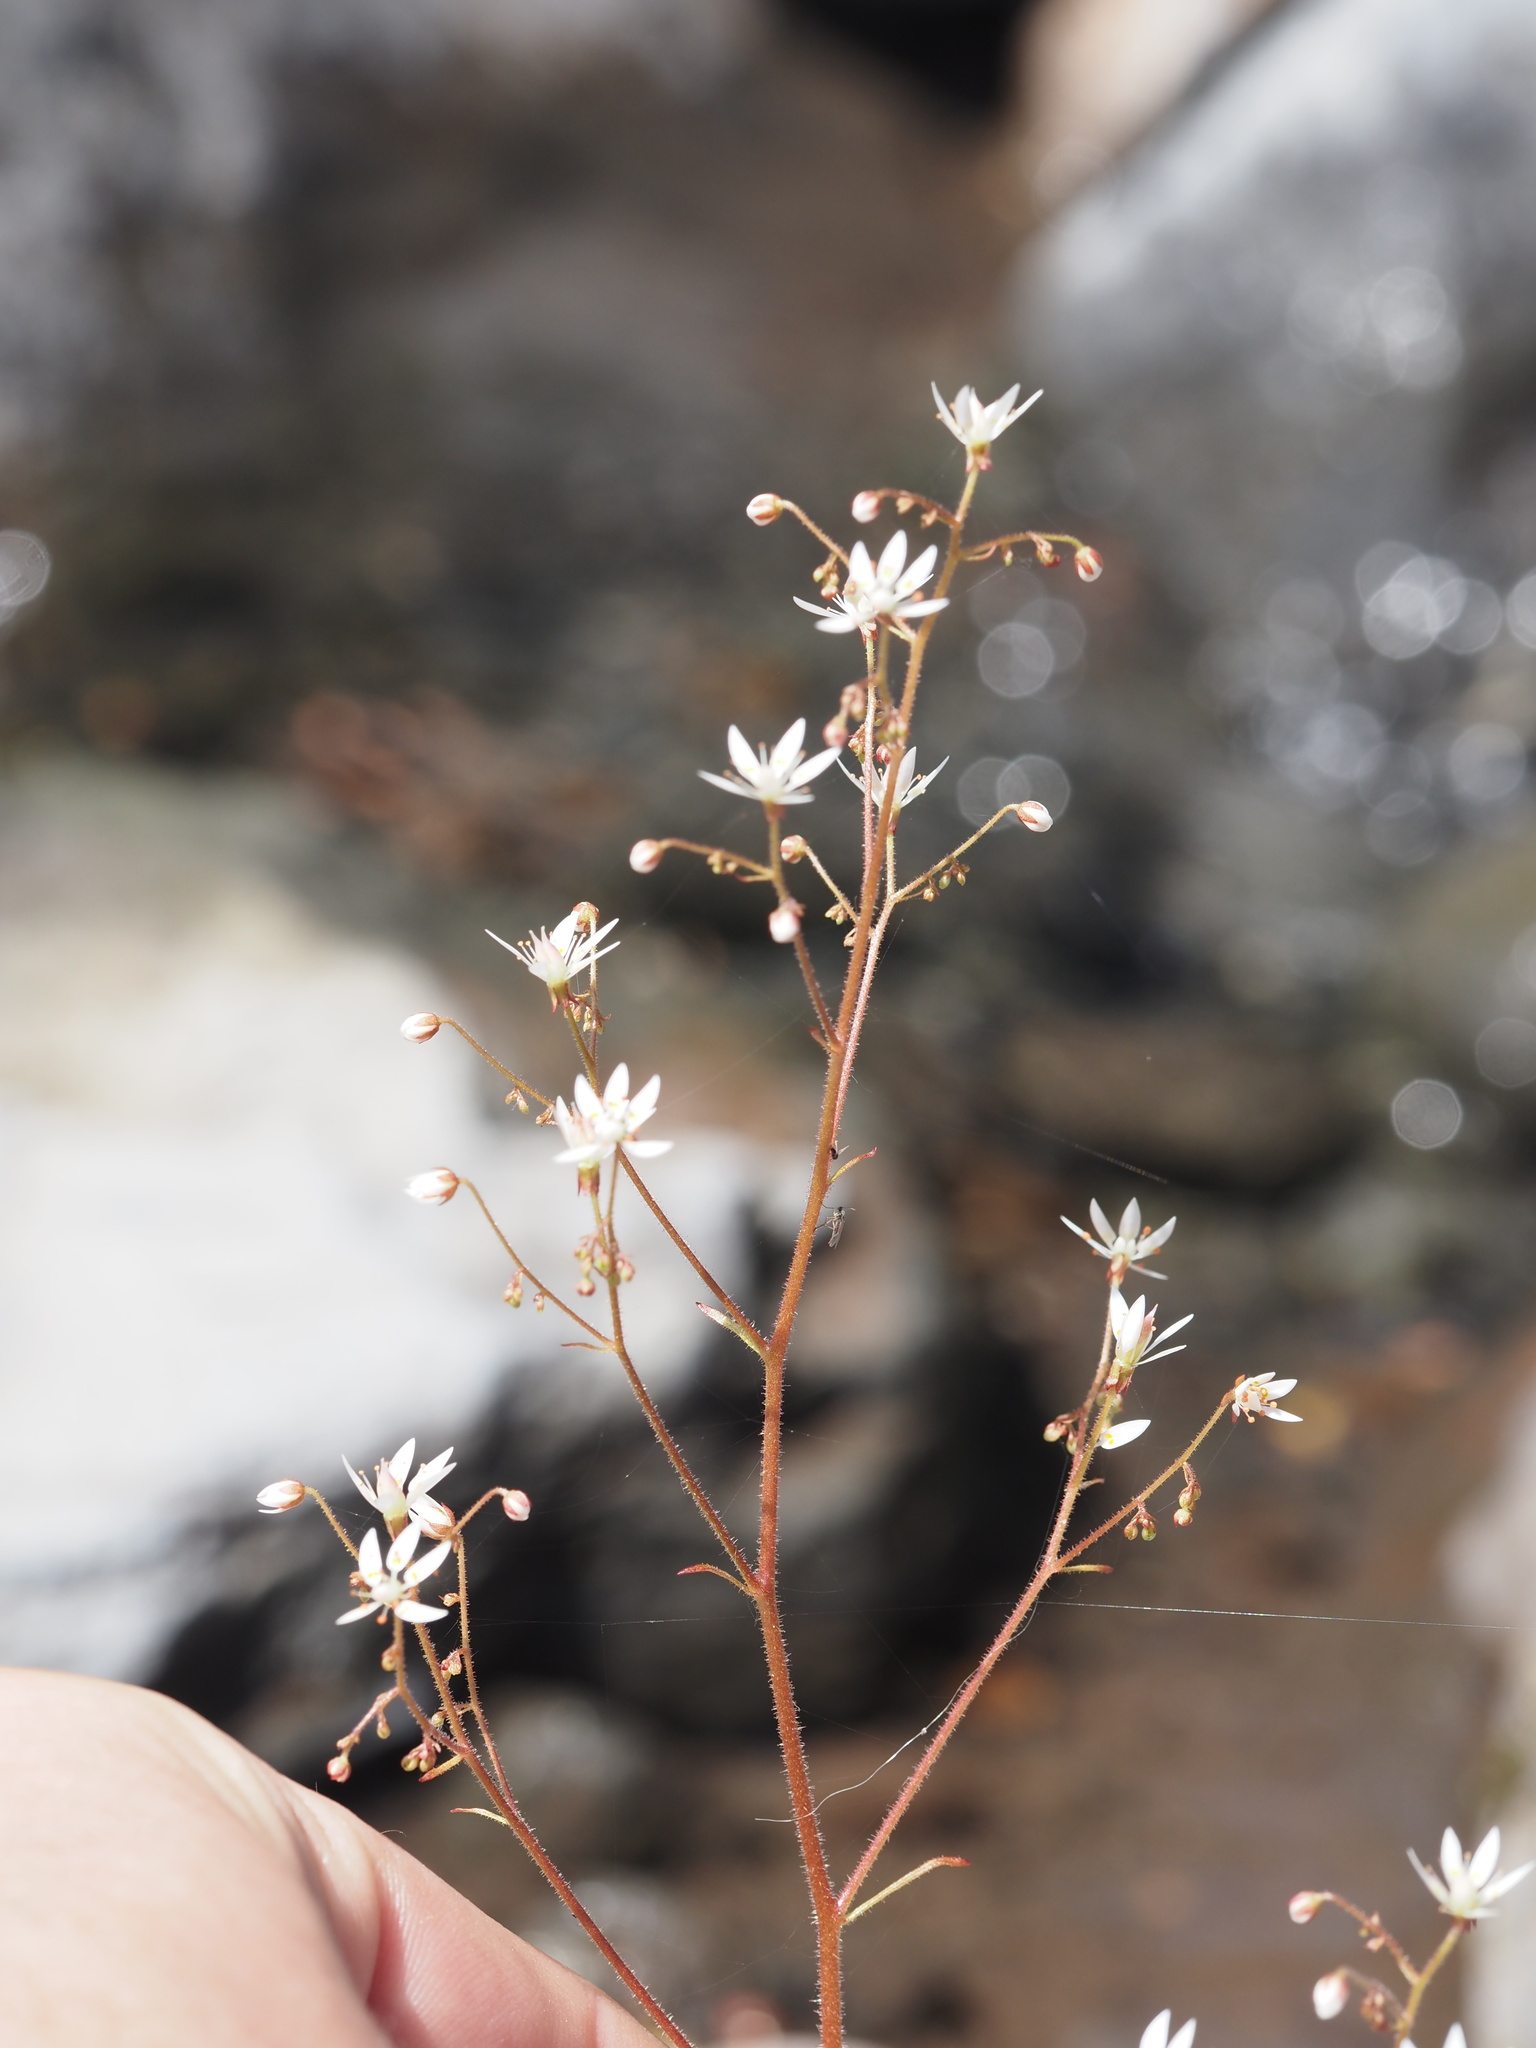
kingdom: Plantae
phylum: Tracheophyta
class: Magnoliopsida
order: Saxifragales
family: Saxifragaceae
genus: Micranthes
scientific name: Micranthes ferruginea
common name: Rusty saxifrage
